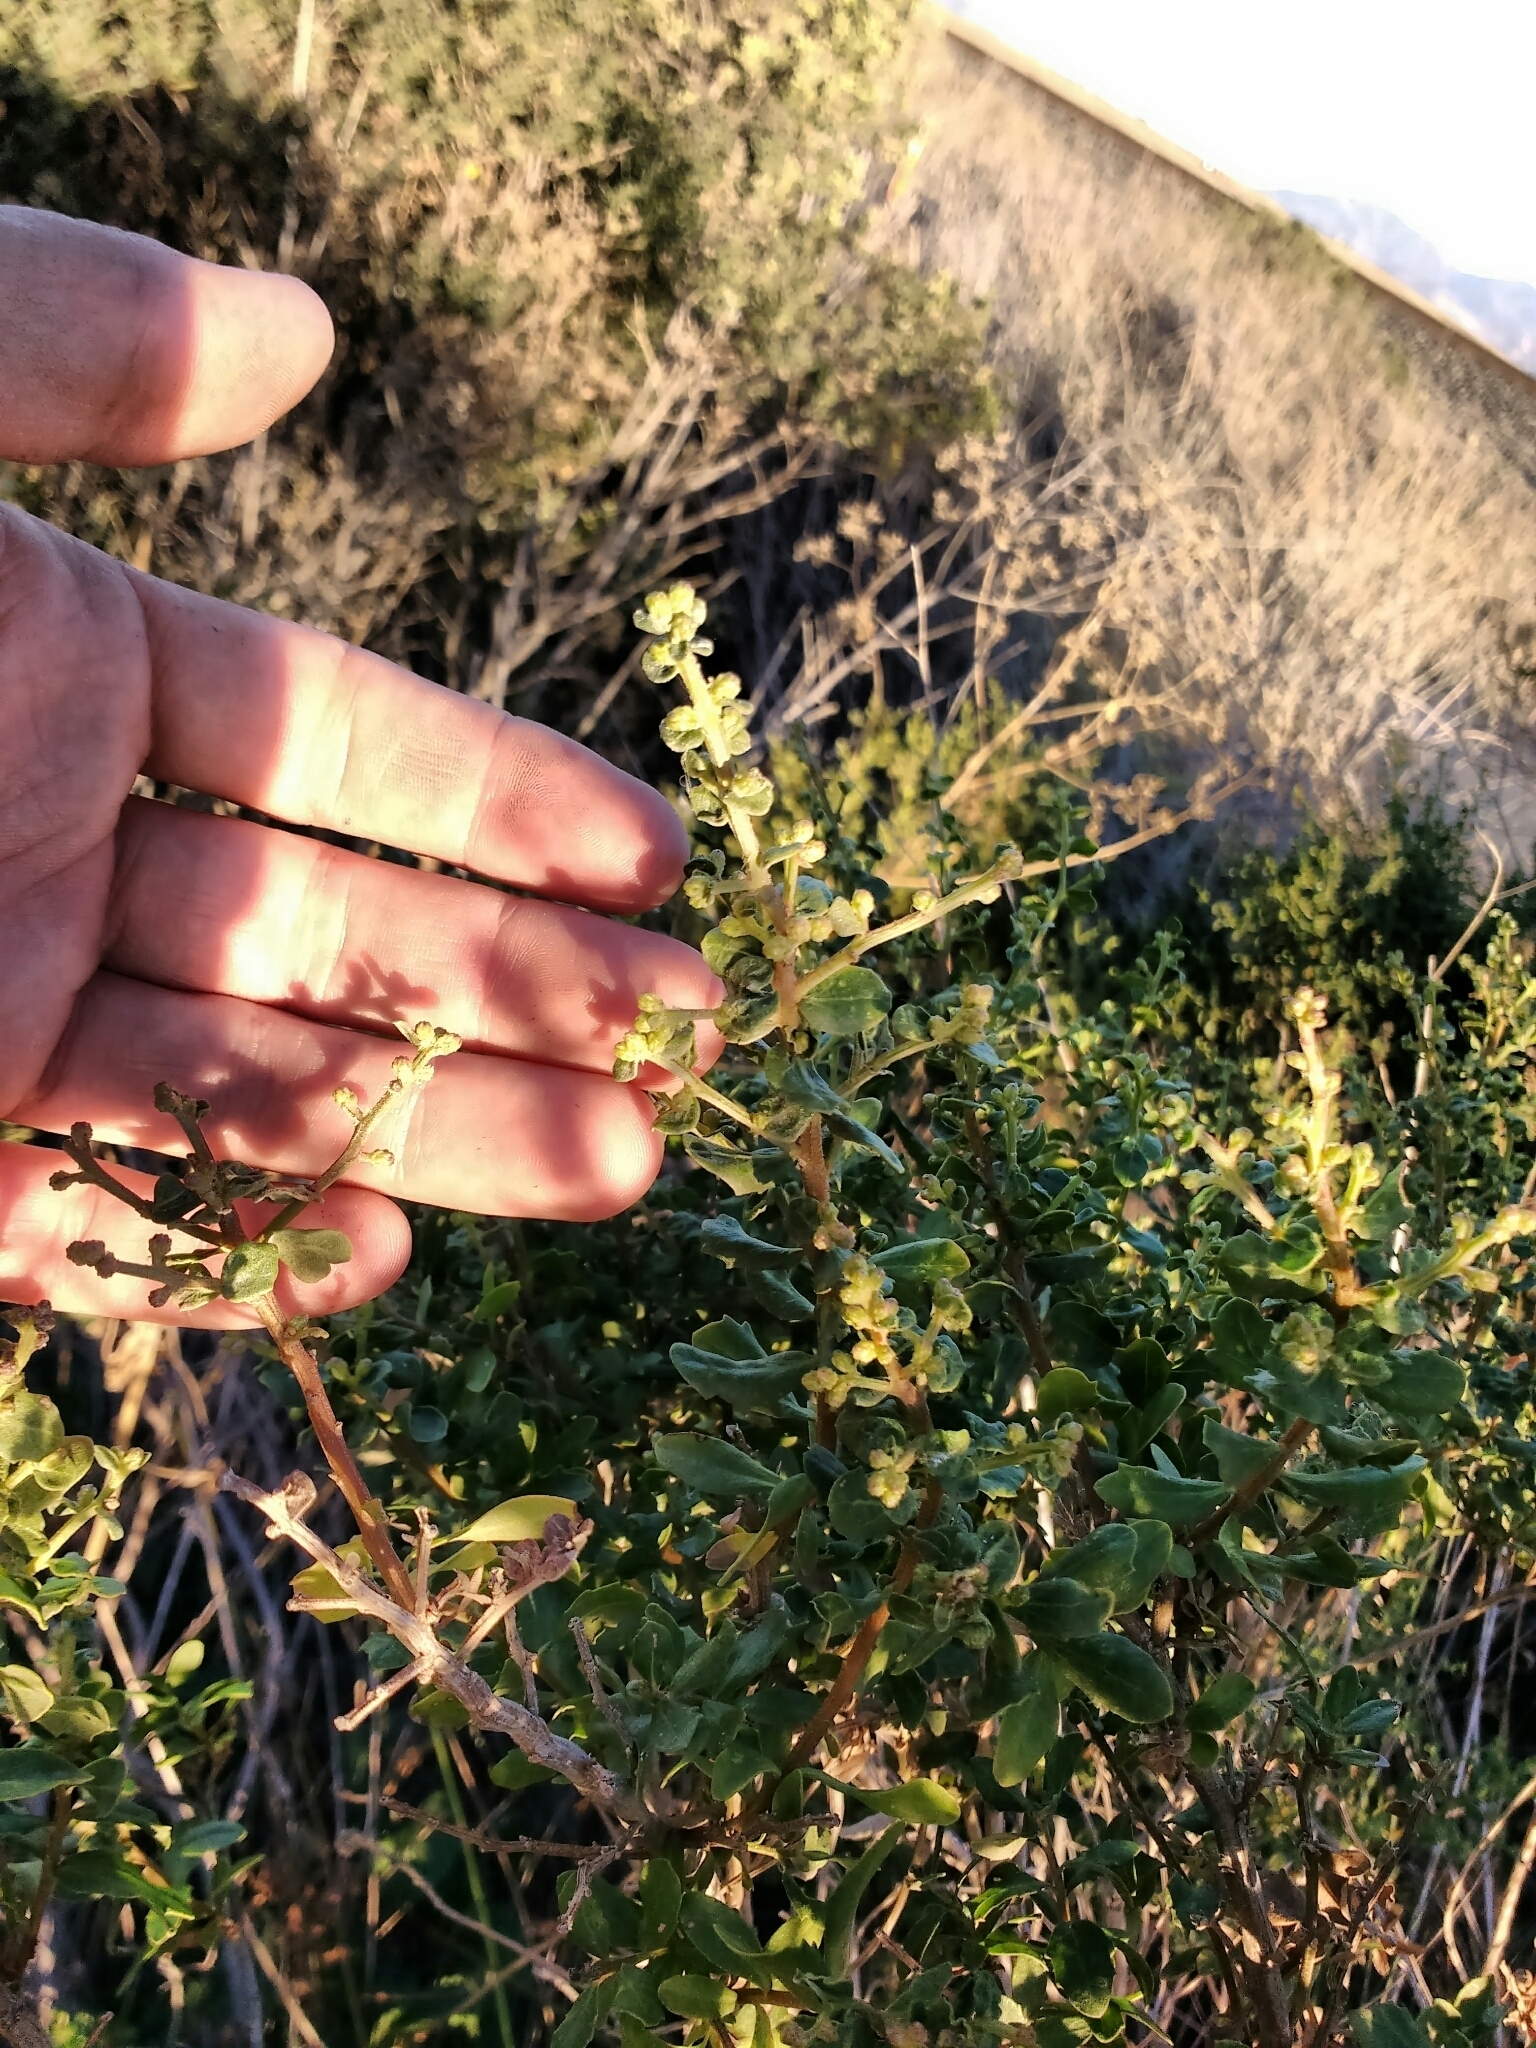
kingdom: Plantae
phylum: Tracheophyta
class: Magnoliopsida
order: Asterales
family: Asteraceae
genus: Baccharis
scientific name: Baccharis pilularis
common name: Coyotebrush
